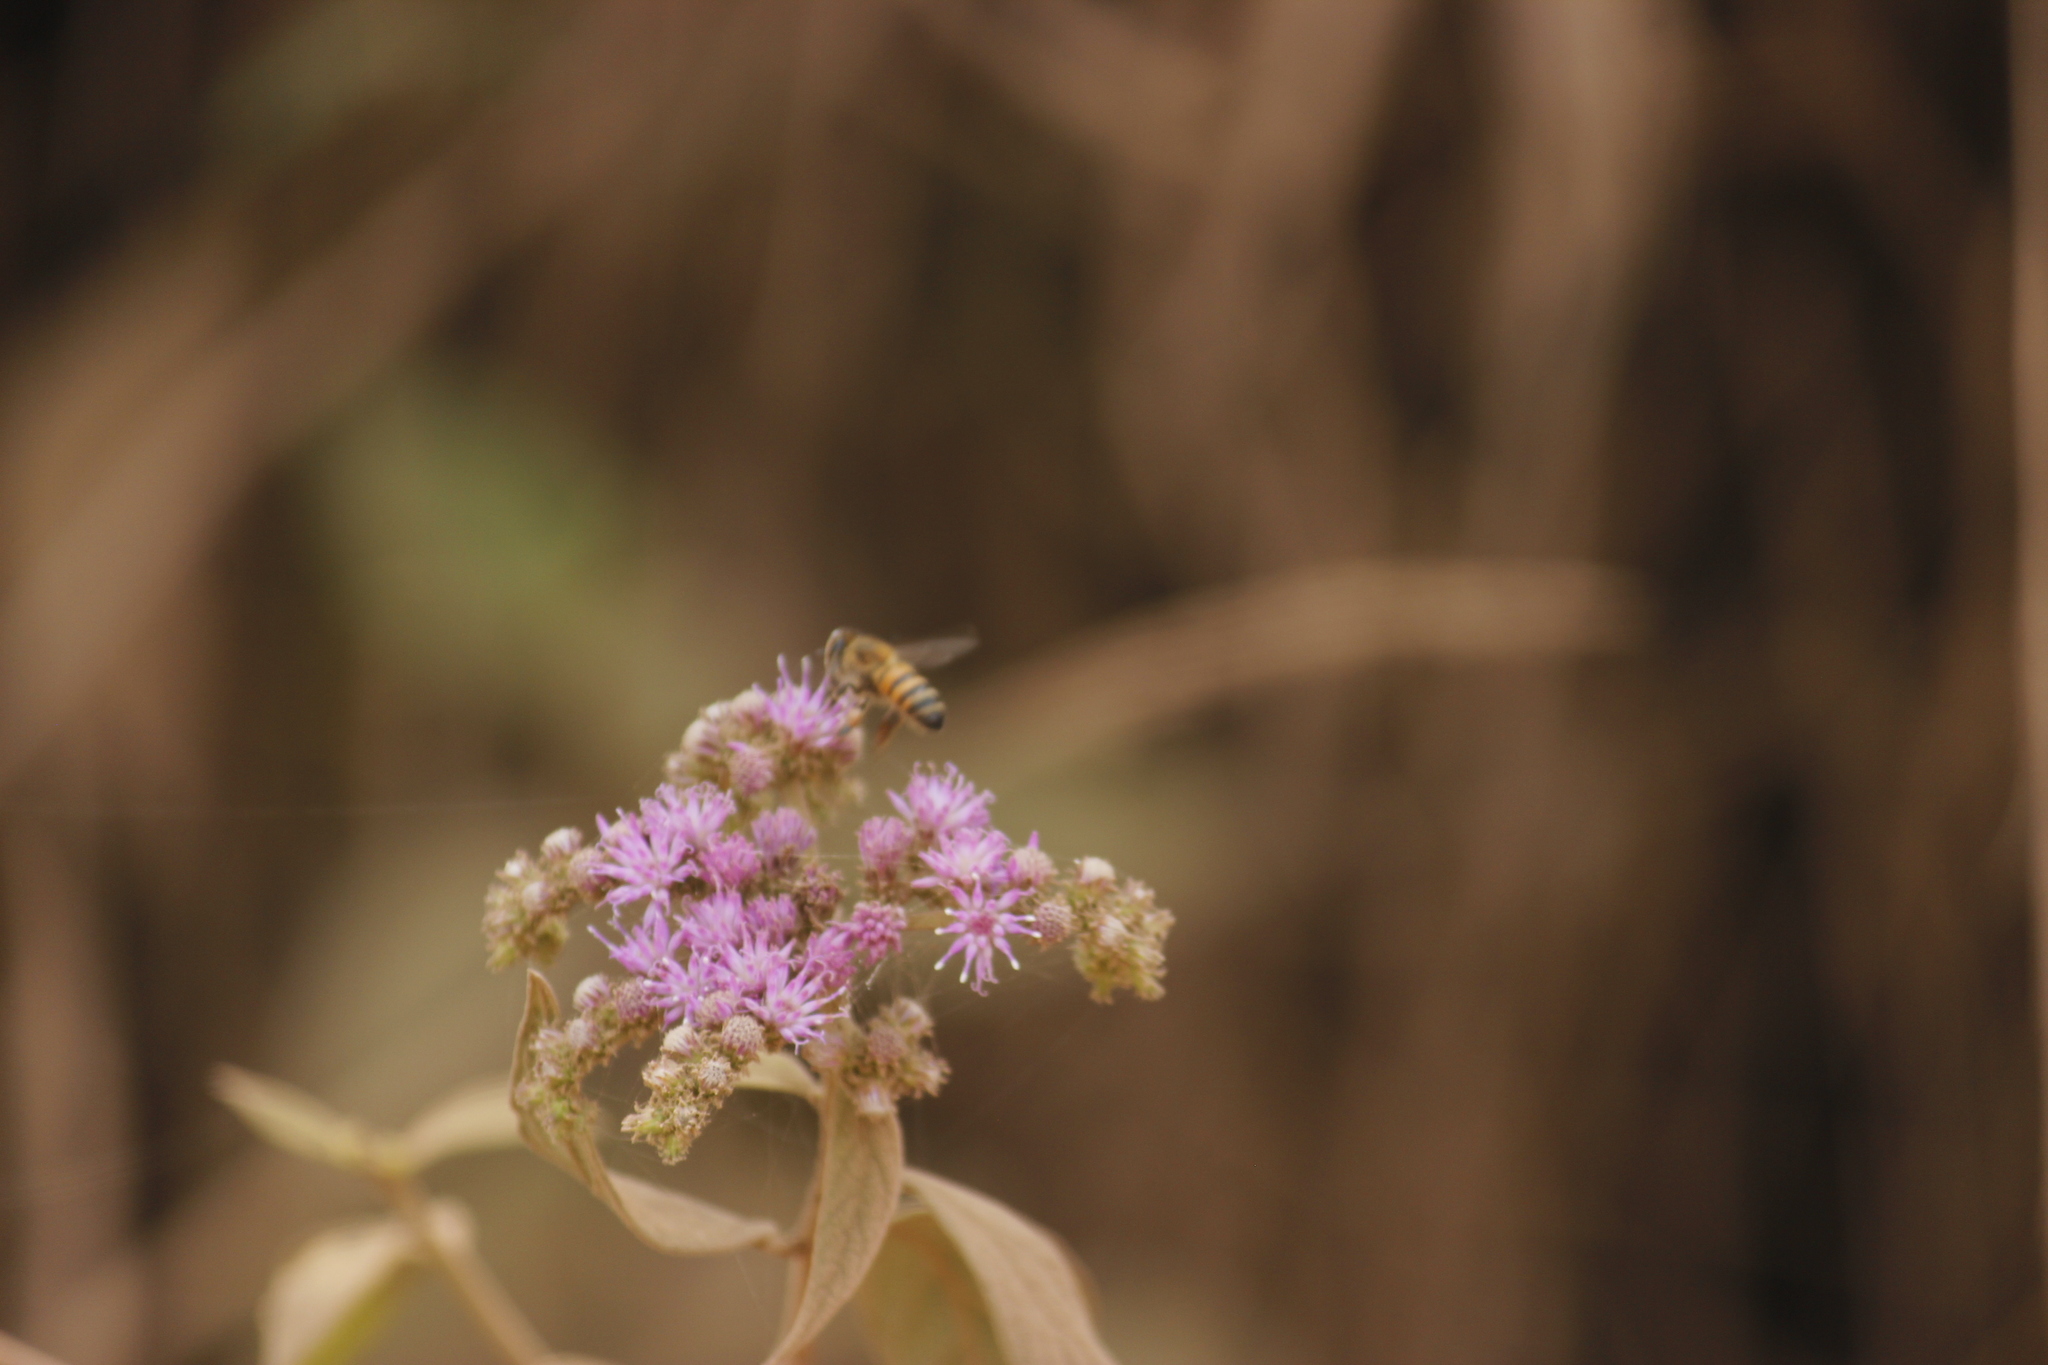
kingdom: Animalia
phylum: Arthropoda
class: Insecta
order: Hymenoptera
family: Apidae
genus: Apis
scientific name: Apis mellifera
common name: Honey bee
